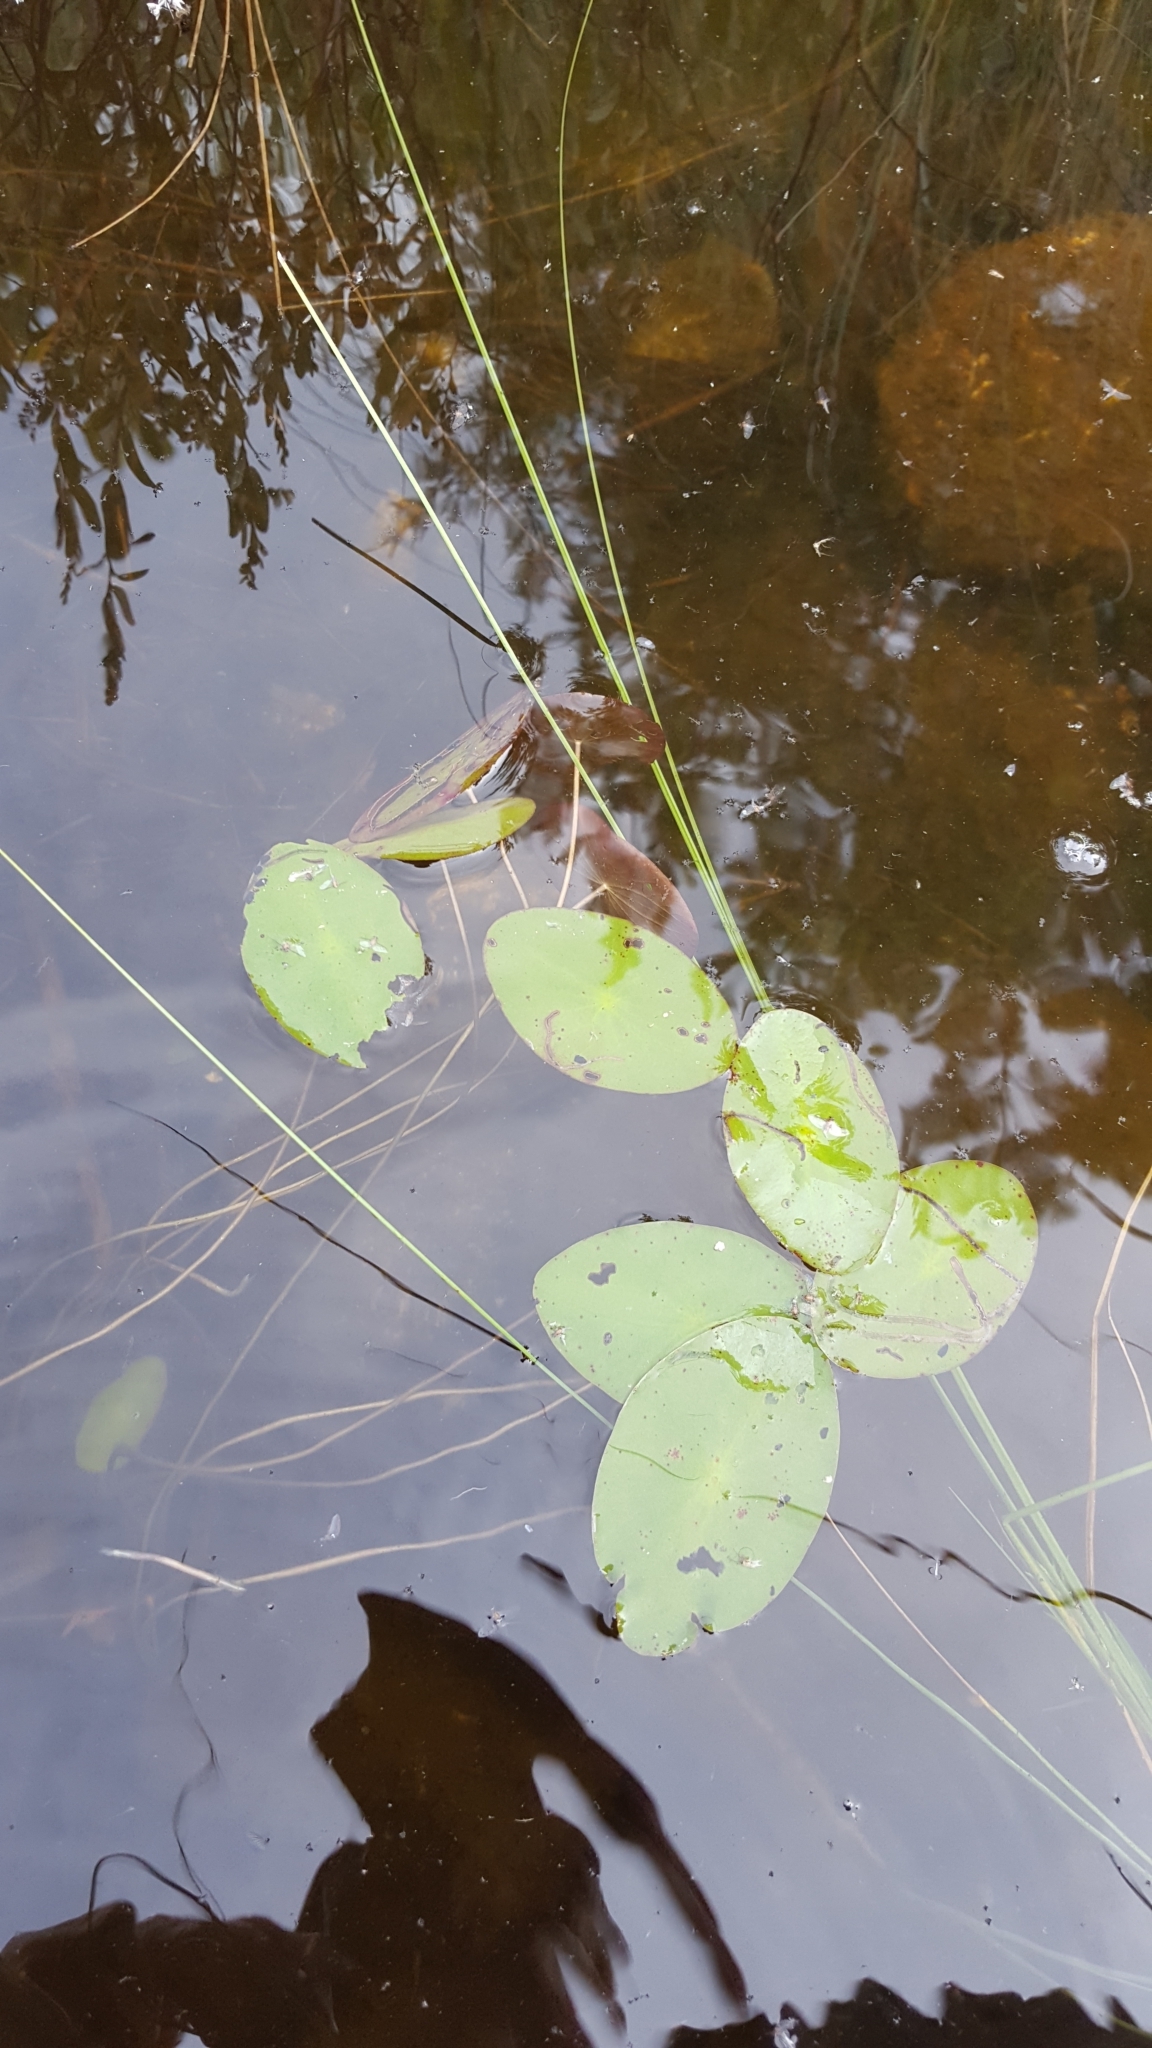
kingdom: Plantae
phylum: Tracheophyta
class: Magnoliopsida
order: Nymphaeales
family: Cabombaceae
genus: Brasenia
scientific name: Brasenia schreberi
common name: Water-shield
